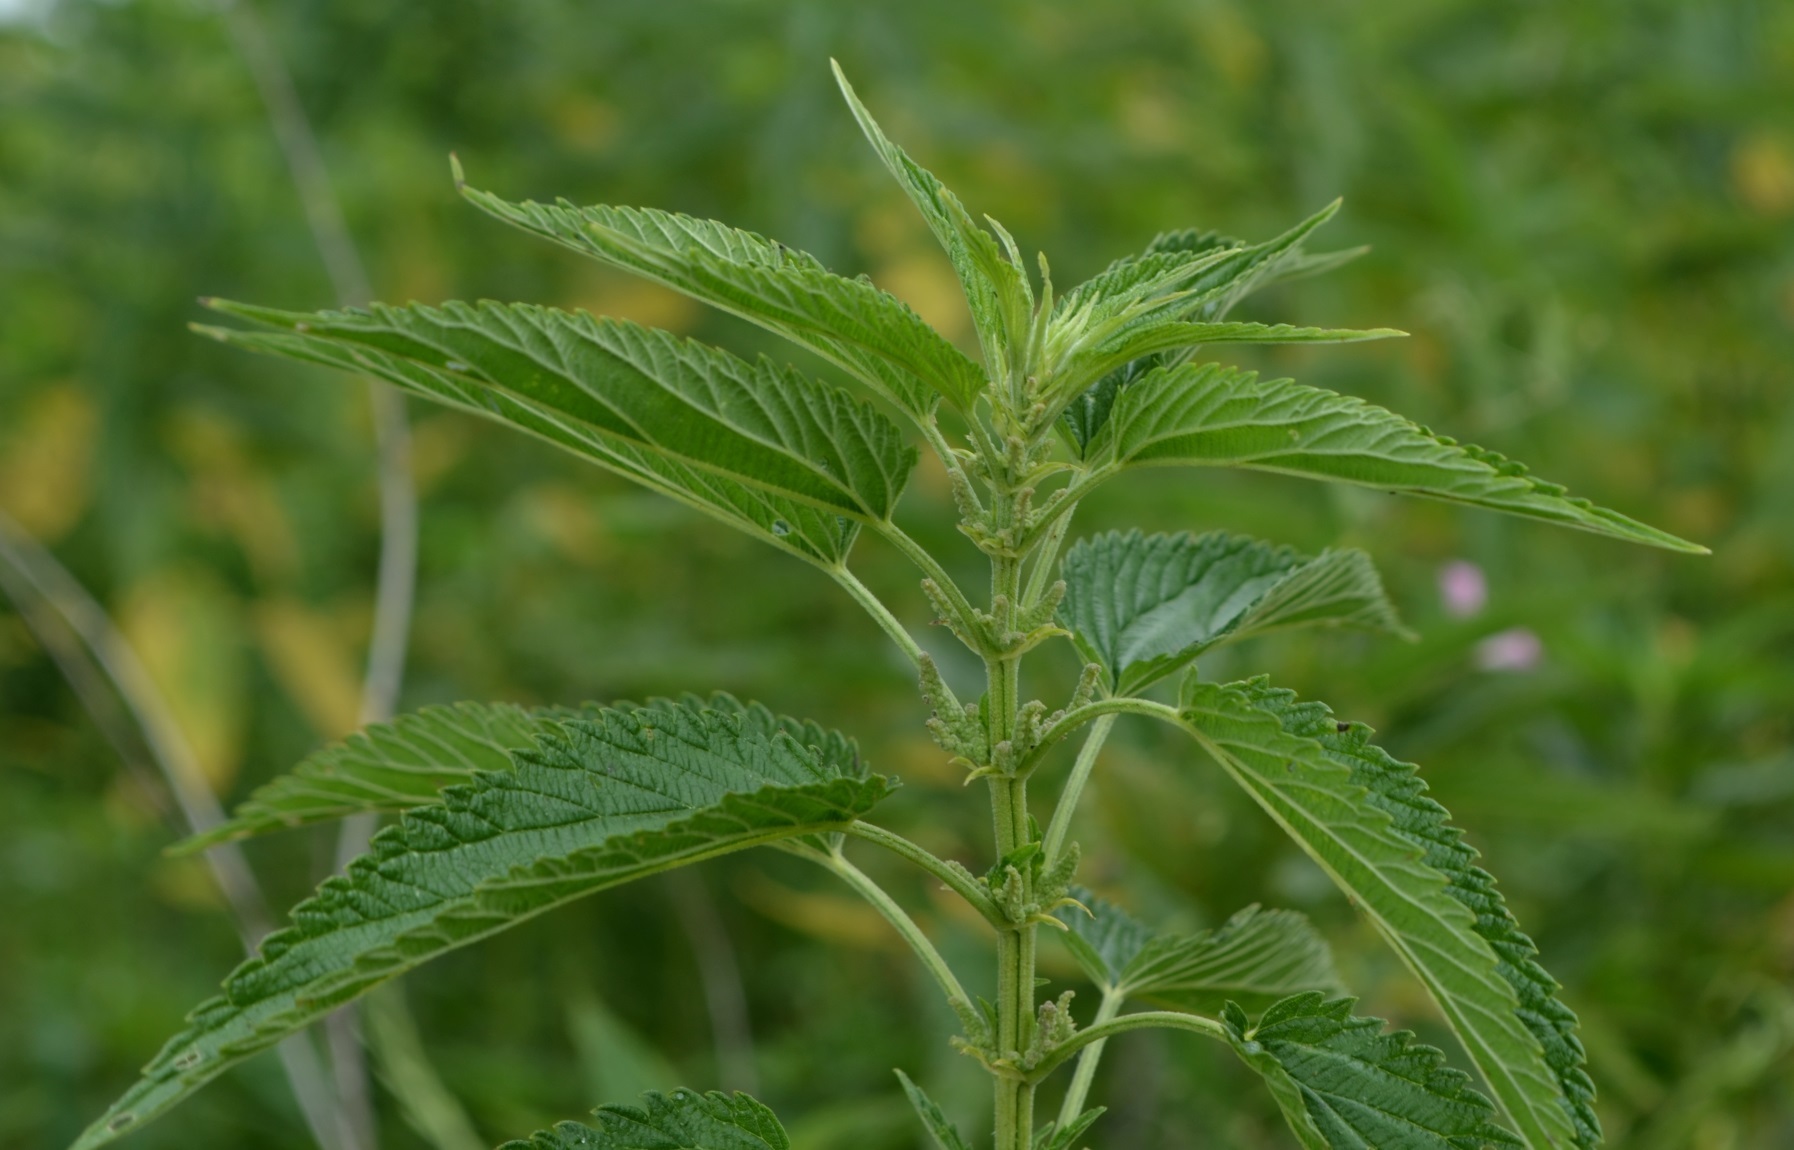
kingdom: Plantae
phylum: Tracheophyta
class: Magnoliopsida
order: Rosales
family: Urticaceae
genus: Urtica
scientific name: Urtica gracilis
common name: Slender stinging nettle
